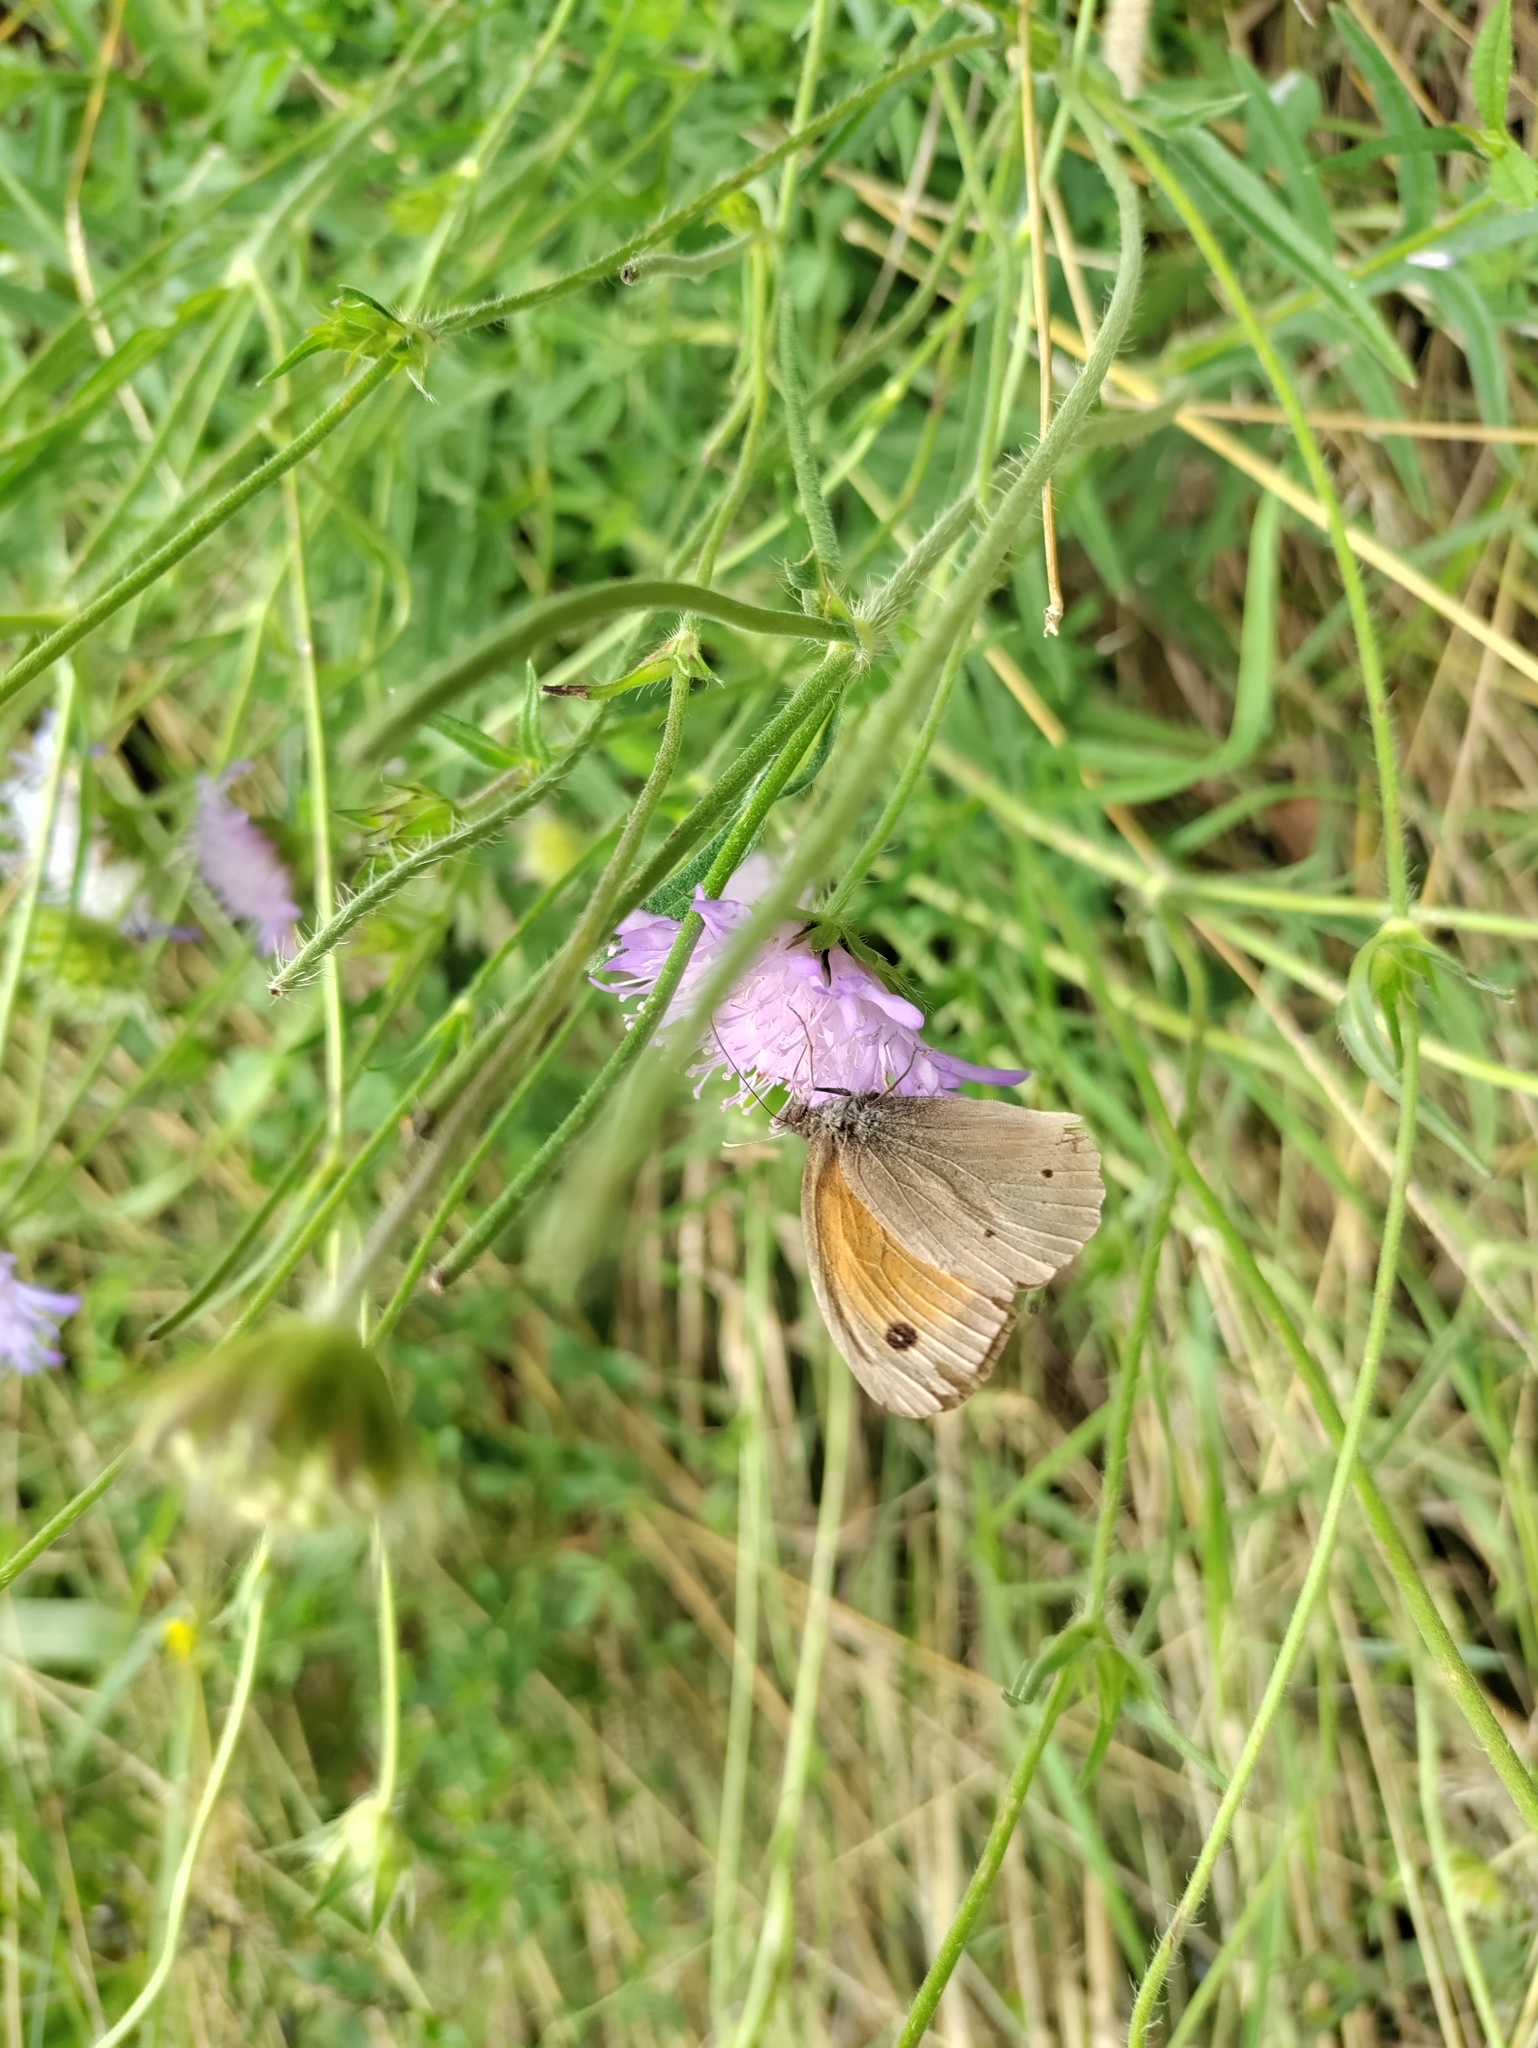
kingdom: Animalia
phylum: Arthropoda
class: Insecta
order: Lepidoptera
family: Nymphalidae
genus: Maniola
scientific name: Maniola jurtina
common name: Meadow brown
